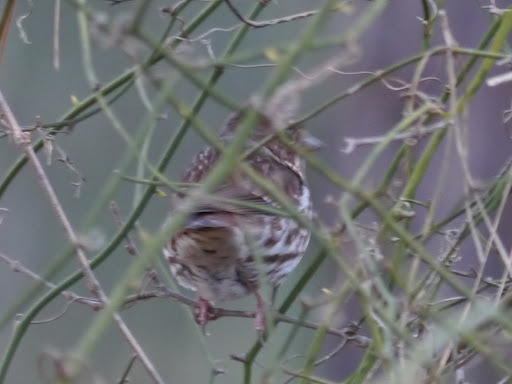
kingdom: Animalia
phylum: Chordata
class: Aves
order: Passeriformes
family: Passerellidae
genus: Passerella
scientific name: Passerella iliaca
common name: Fox sparrow
